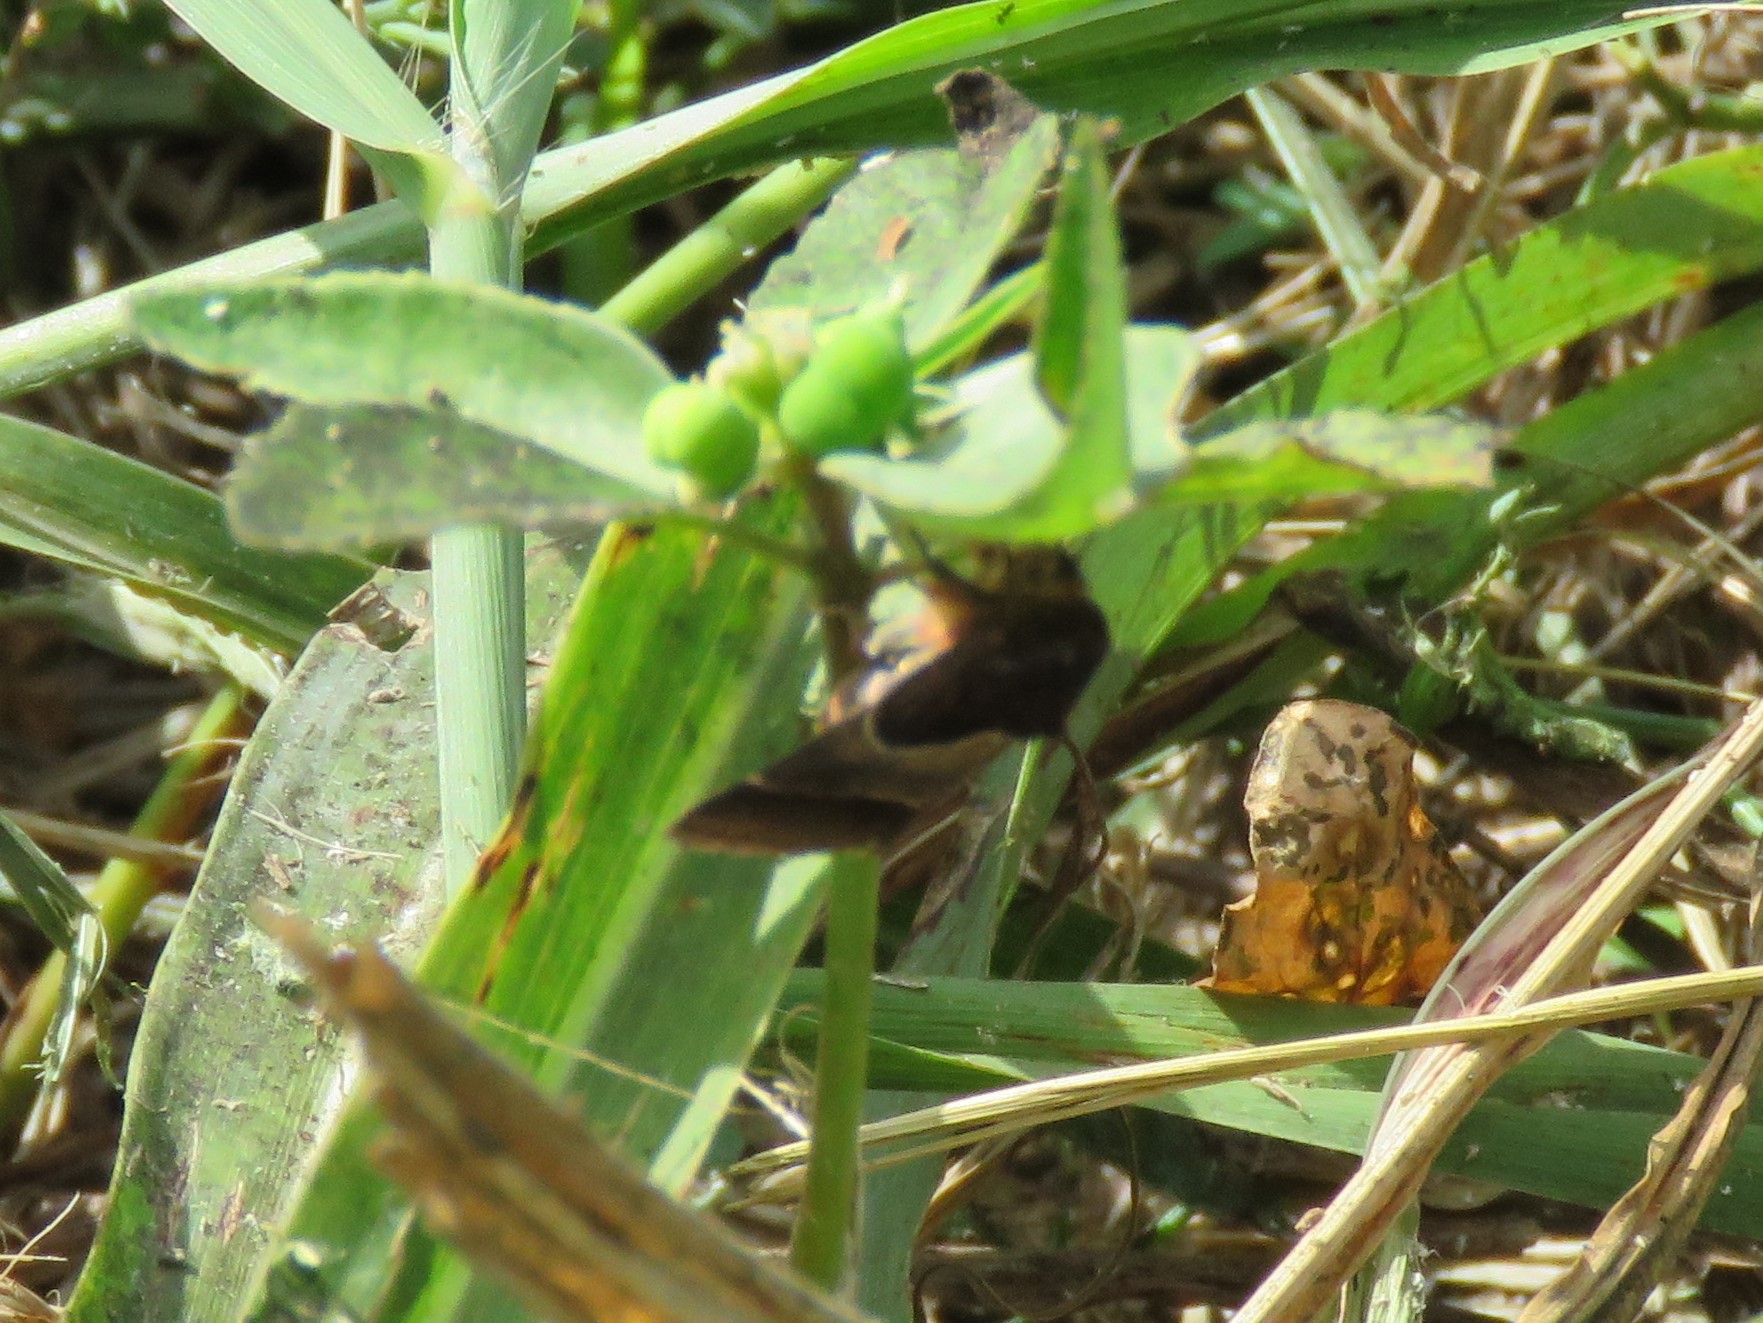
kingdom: Animalia
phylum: Arthropoda
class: Insecta
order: Lepidoptera
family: Noctuidae
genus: Schinia
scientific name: Schinia arcigera
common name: Arcigera flower moth
